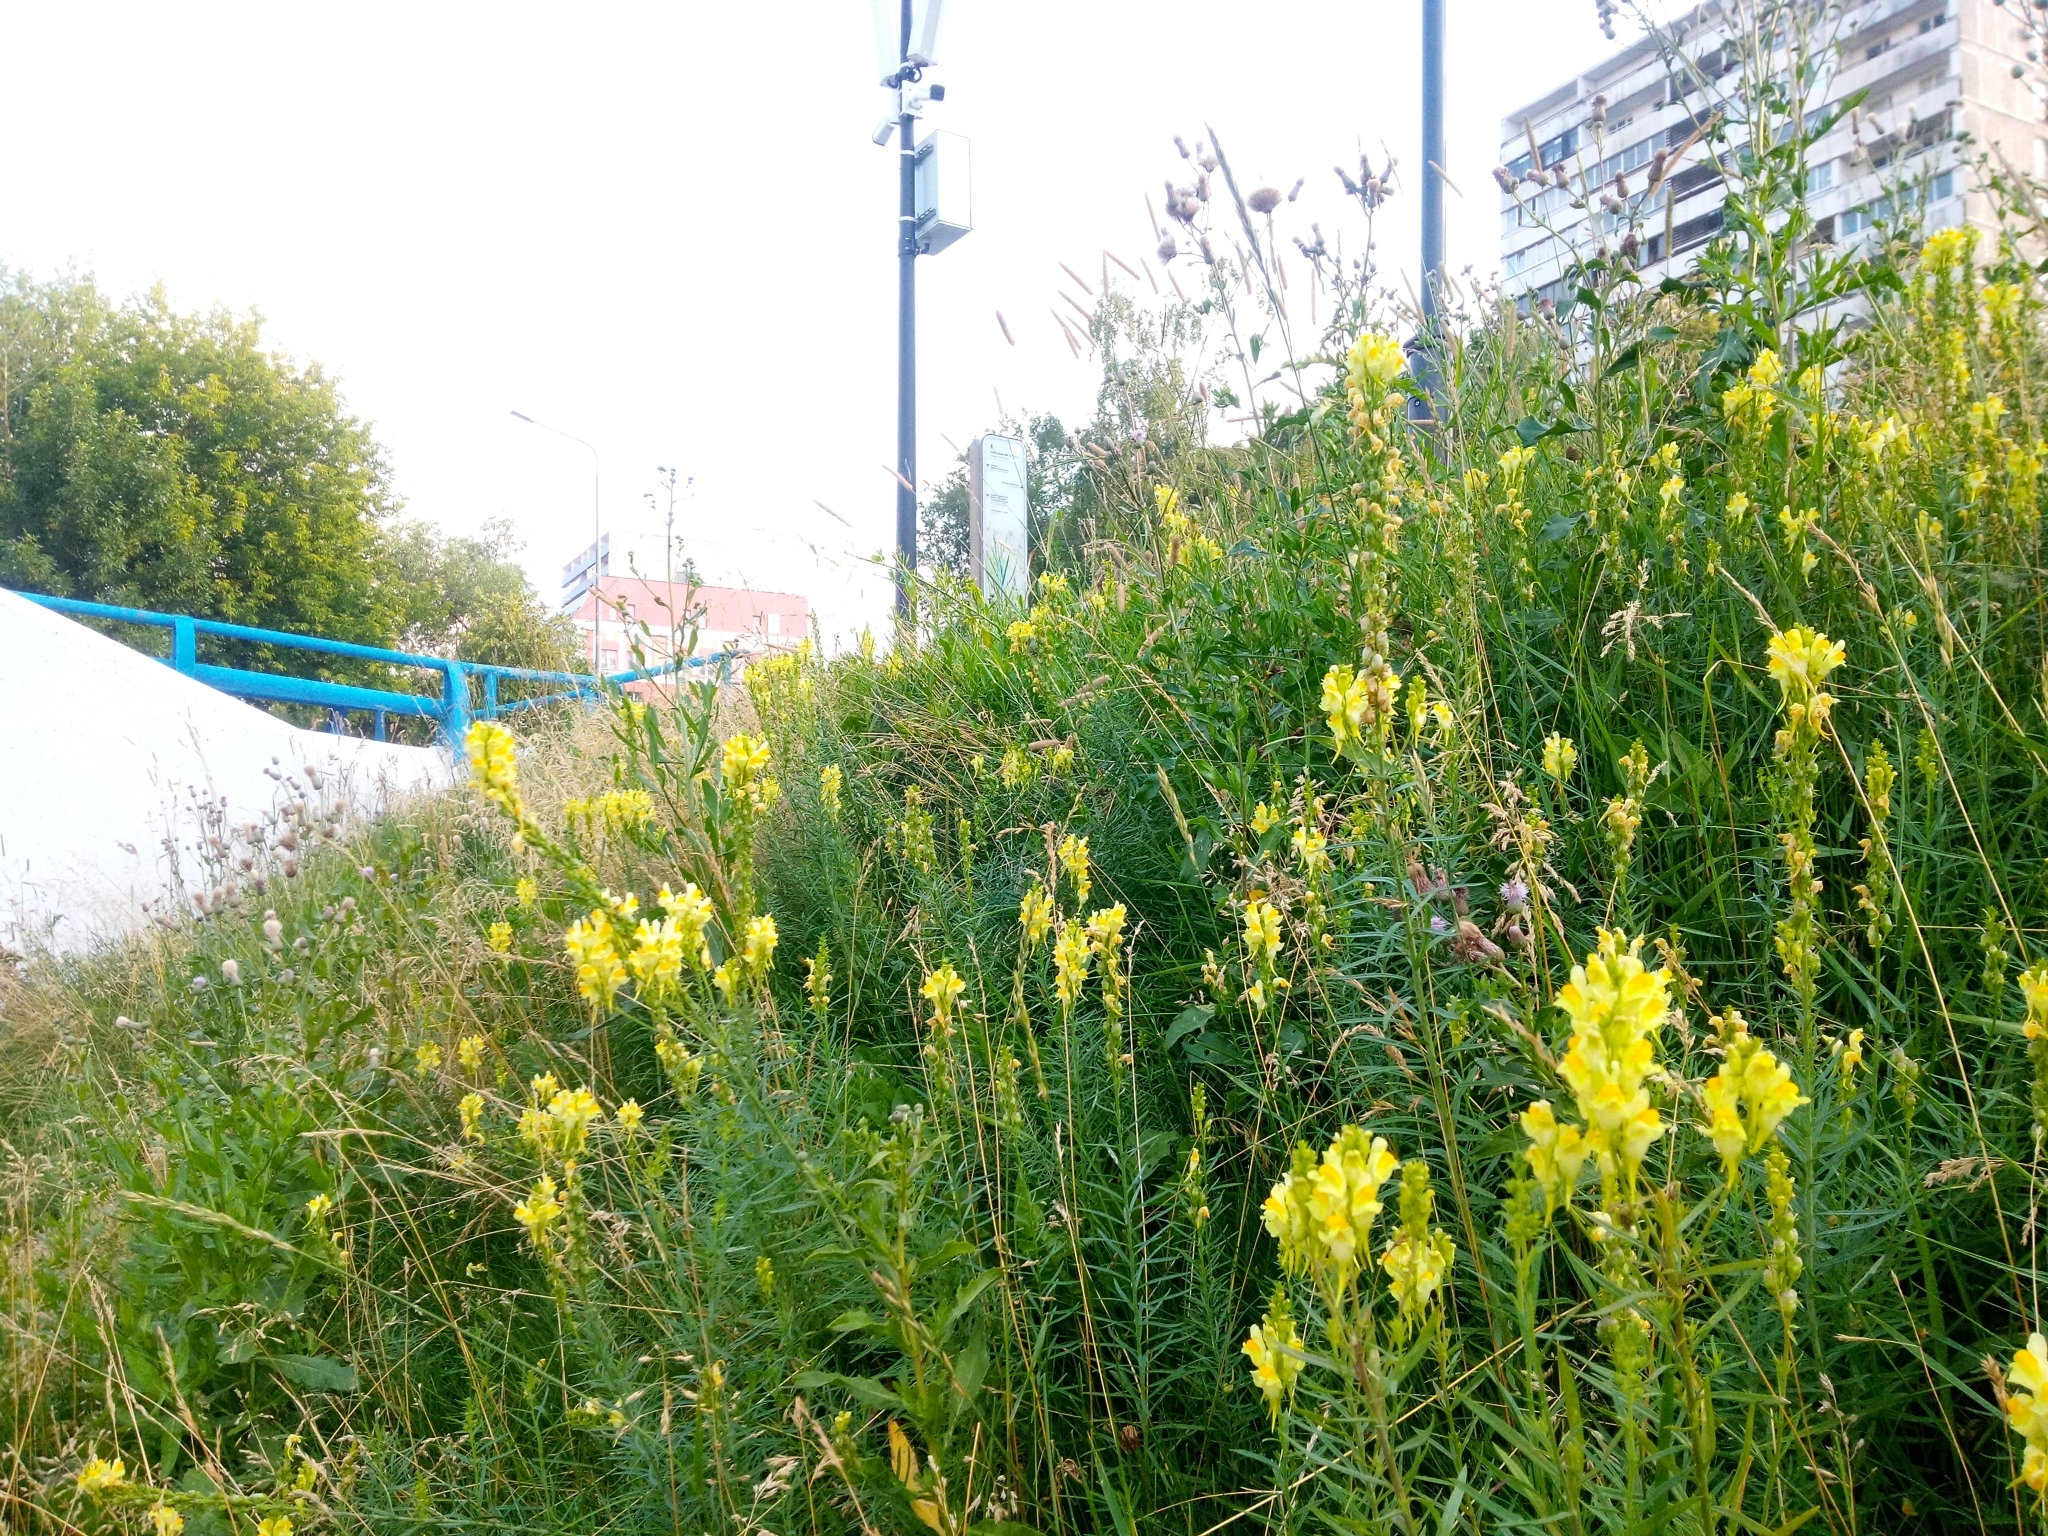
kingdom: Plantae
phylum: Tracheophyta
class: Magnoliopsida
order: Lamiales
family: Plantaginaceae
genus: Linaria
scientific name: Linaria vulgaris
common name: Butter and eggs
